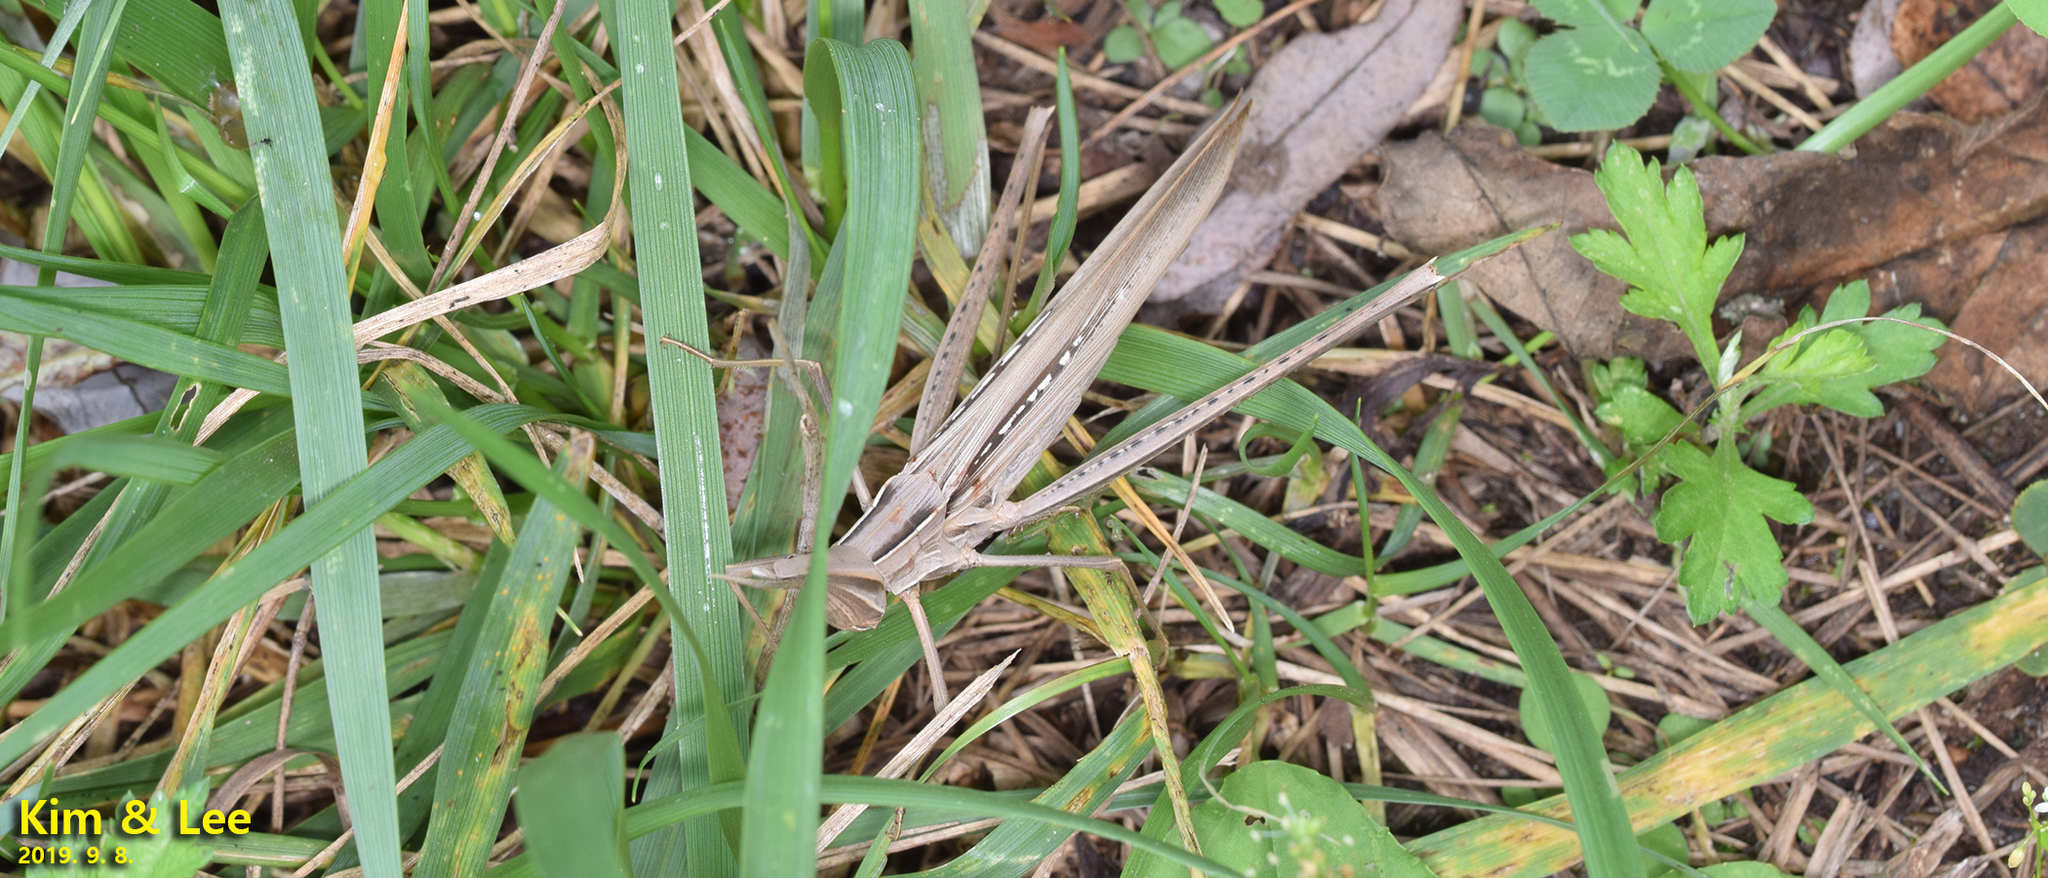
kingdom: Animalia
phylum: Arthropoda
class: Insecta
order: Orthoptera
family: Acrididae
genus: Acrida
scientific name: Acrida cinerea
